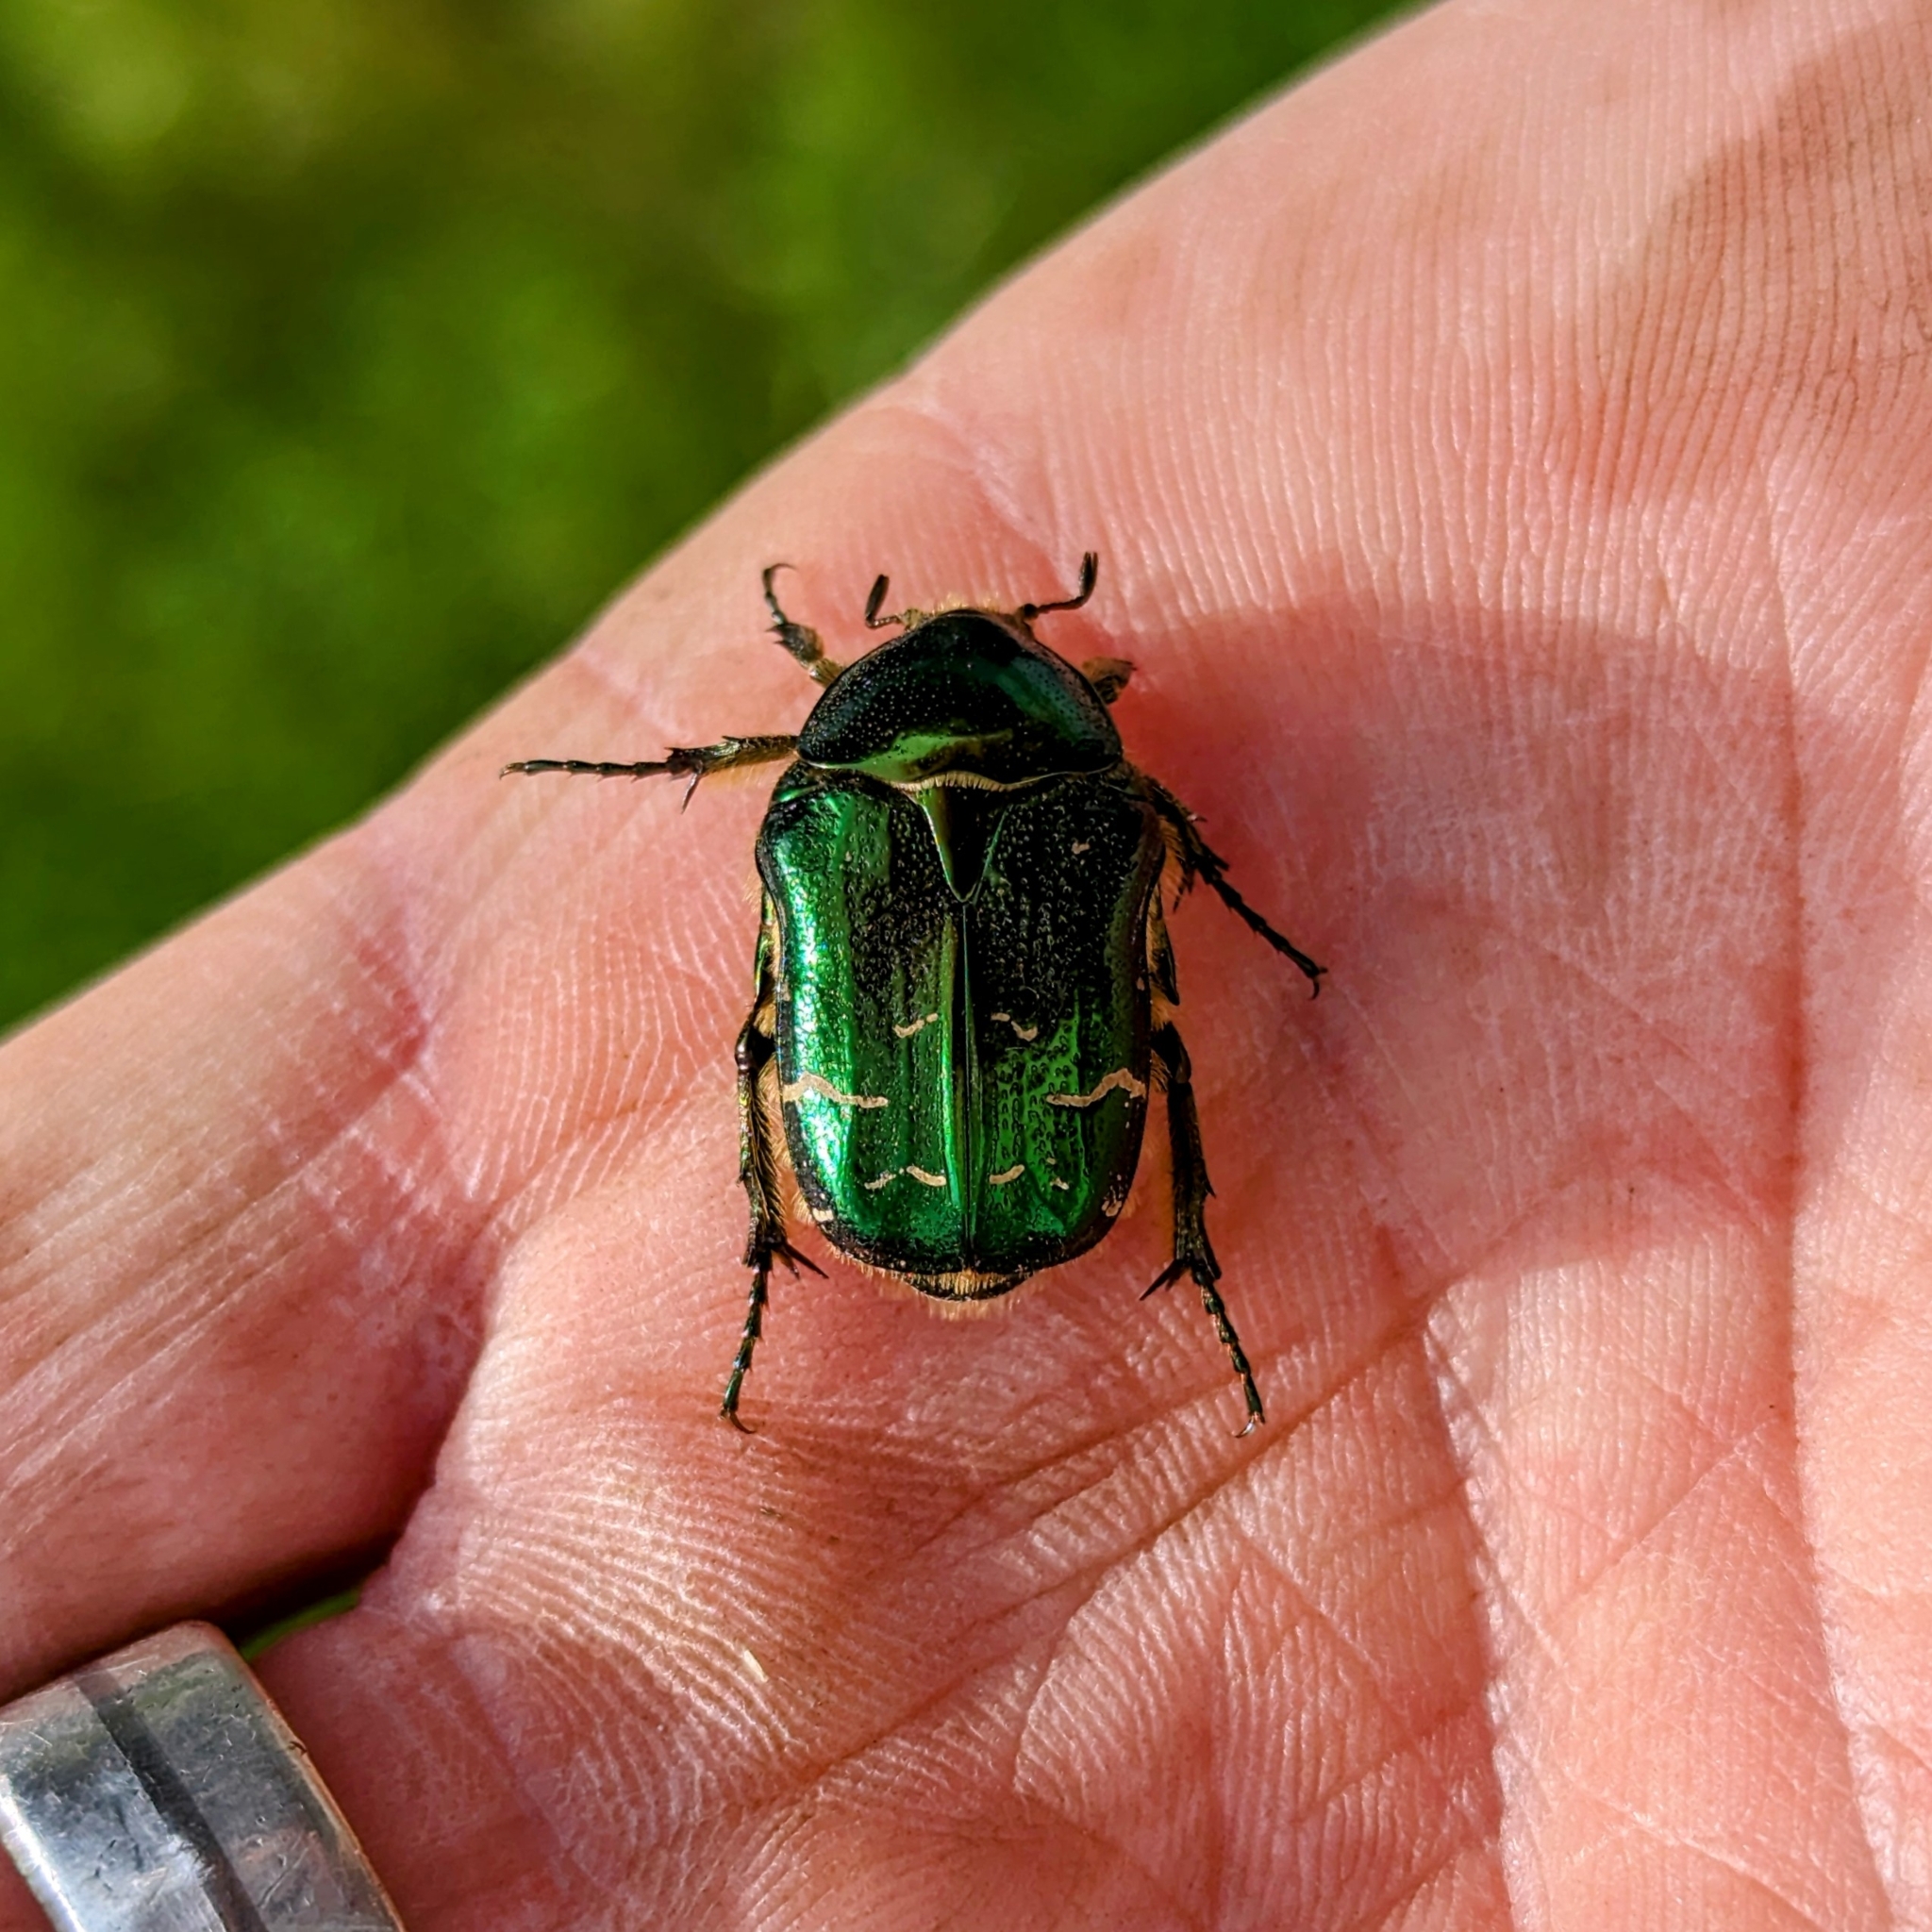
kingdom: Animalia
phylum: Arthropoda
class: Insecta
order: Coleoptera
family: Scarabaeidae
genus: Cetonia
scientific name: Cetonia aurata
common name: Rose chafer
